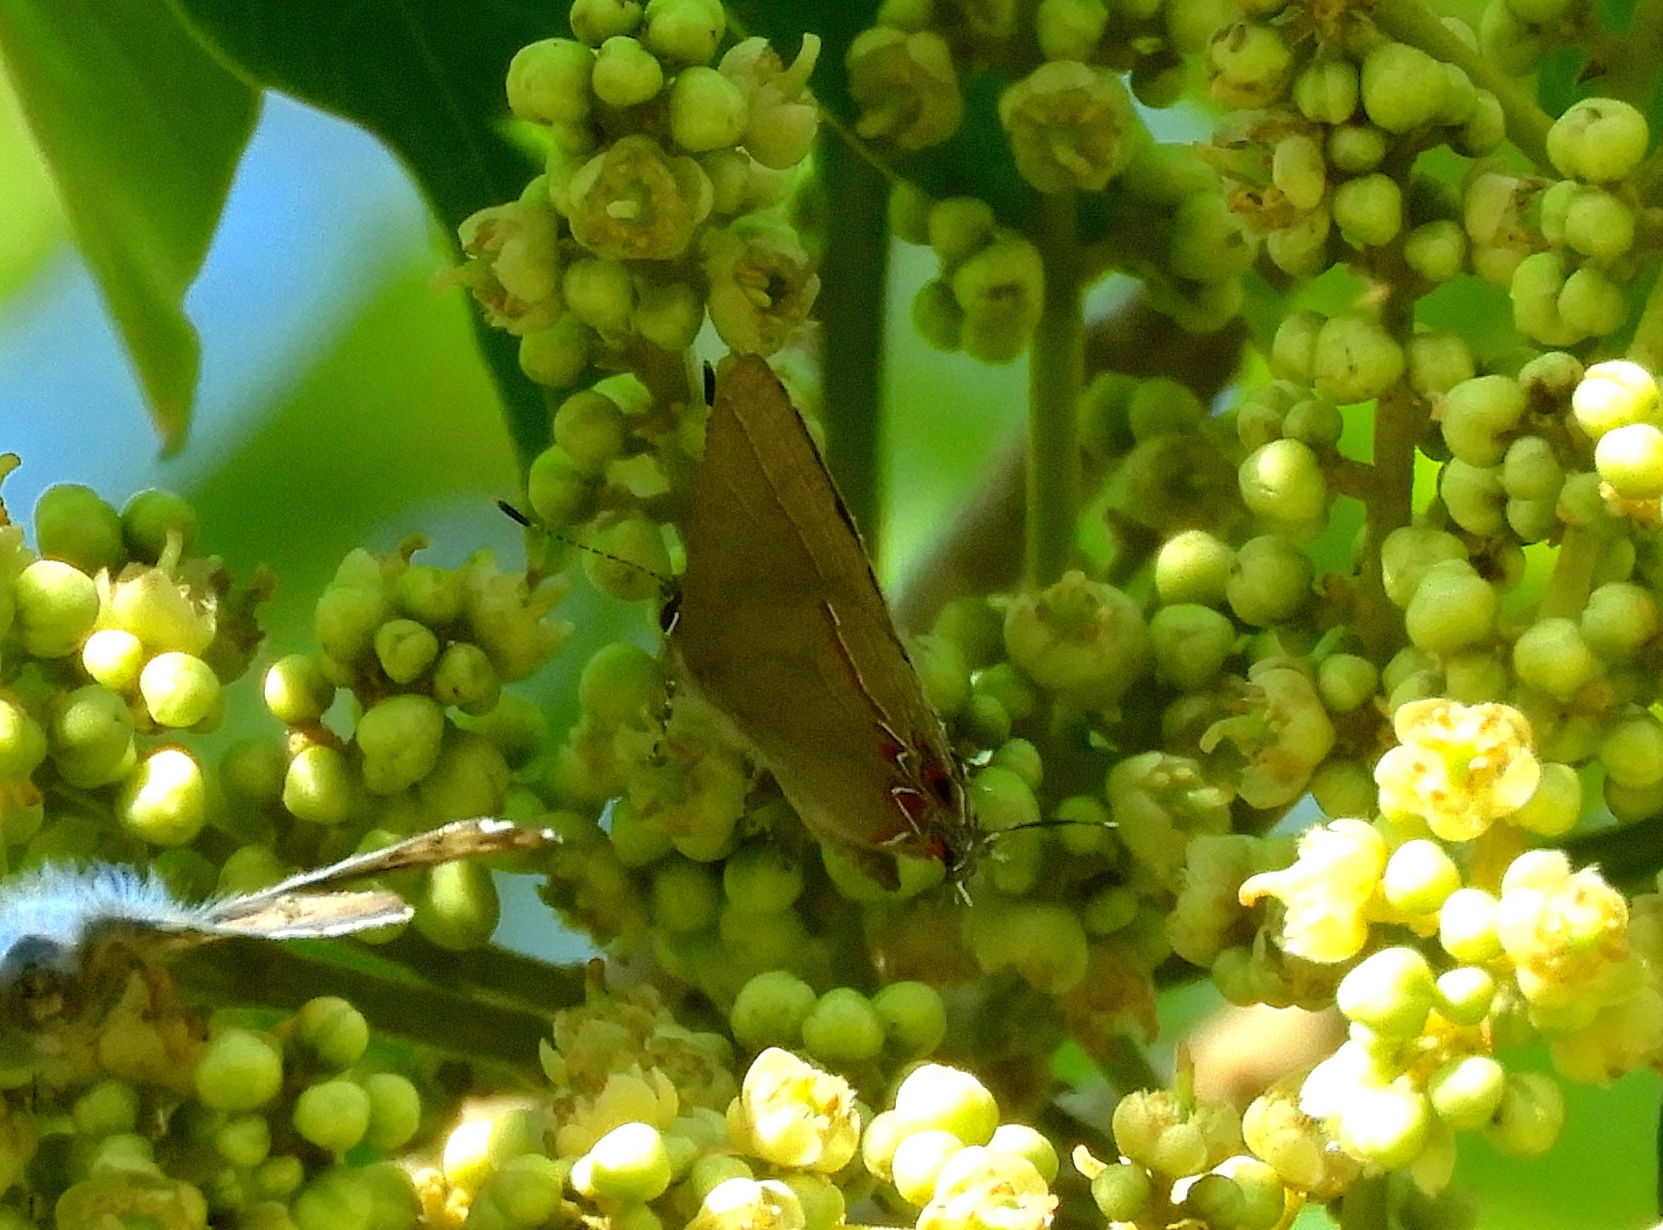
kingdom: Animalia
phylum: Arthropoda
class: Insecta
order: Lepidoptera
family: Lycaenidae
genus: Calycopis
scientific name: Calycopis
